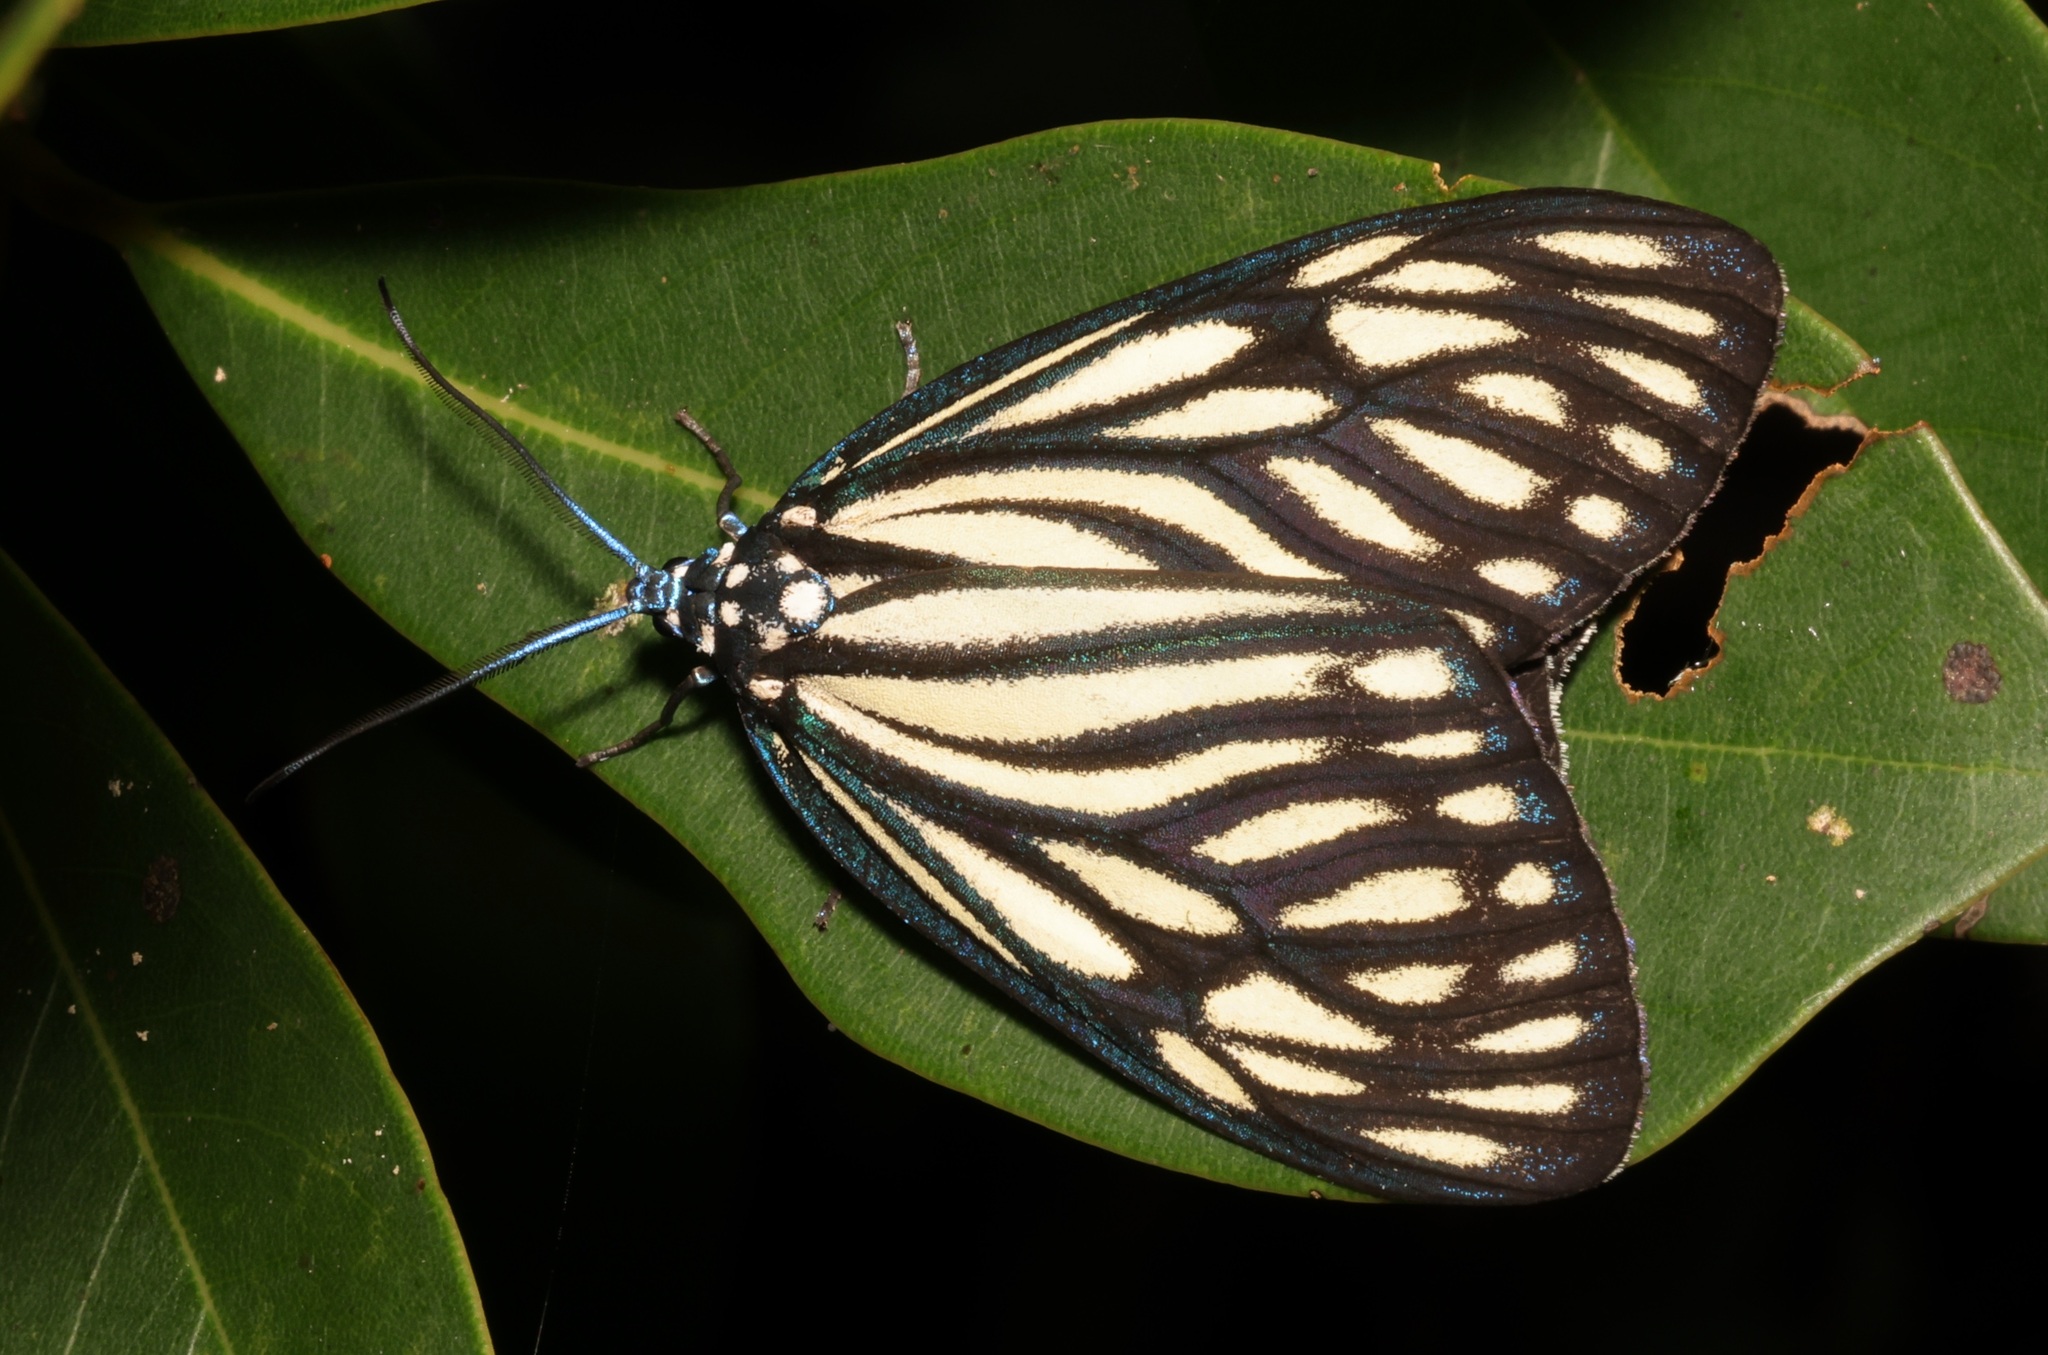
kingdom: Animalia
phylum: Arthropoda
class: Insecta
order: Lepidoptera
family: Zygaenidae
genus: Cyclosia
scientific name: Cyclosia papilionaris
